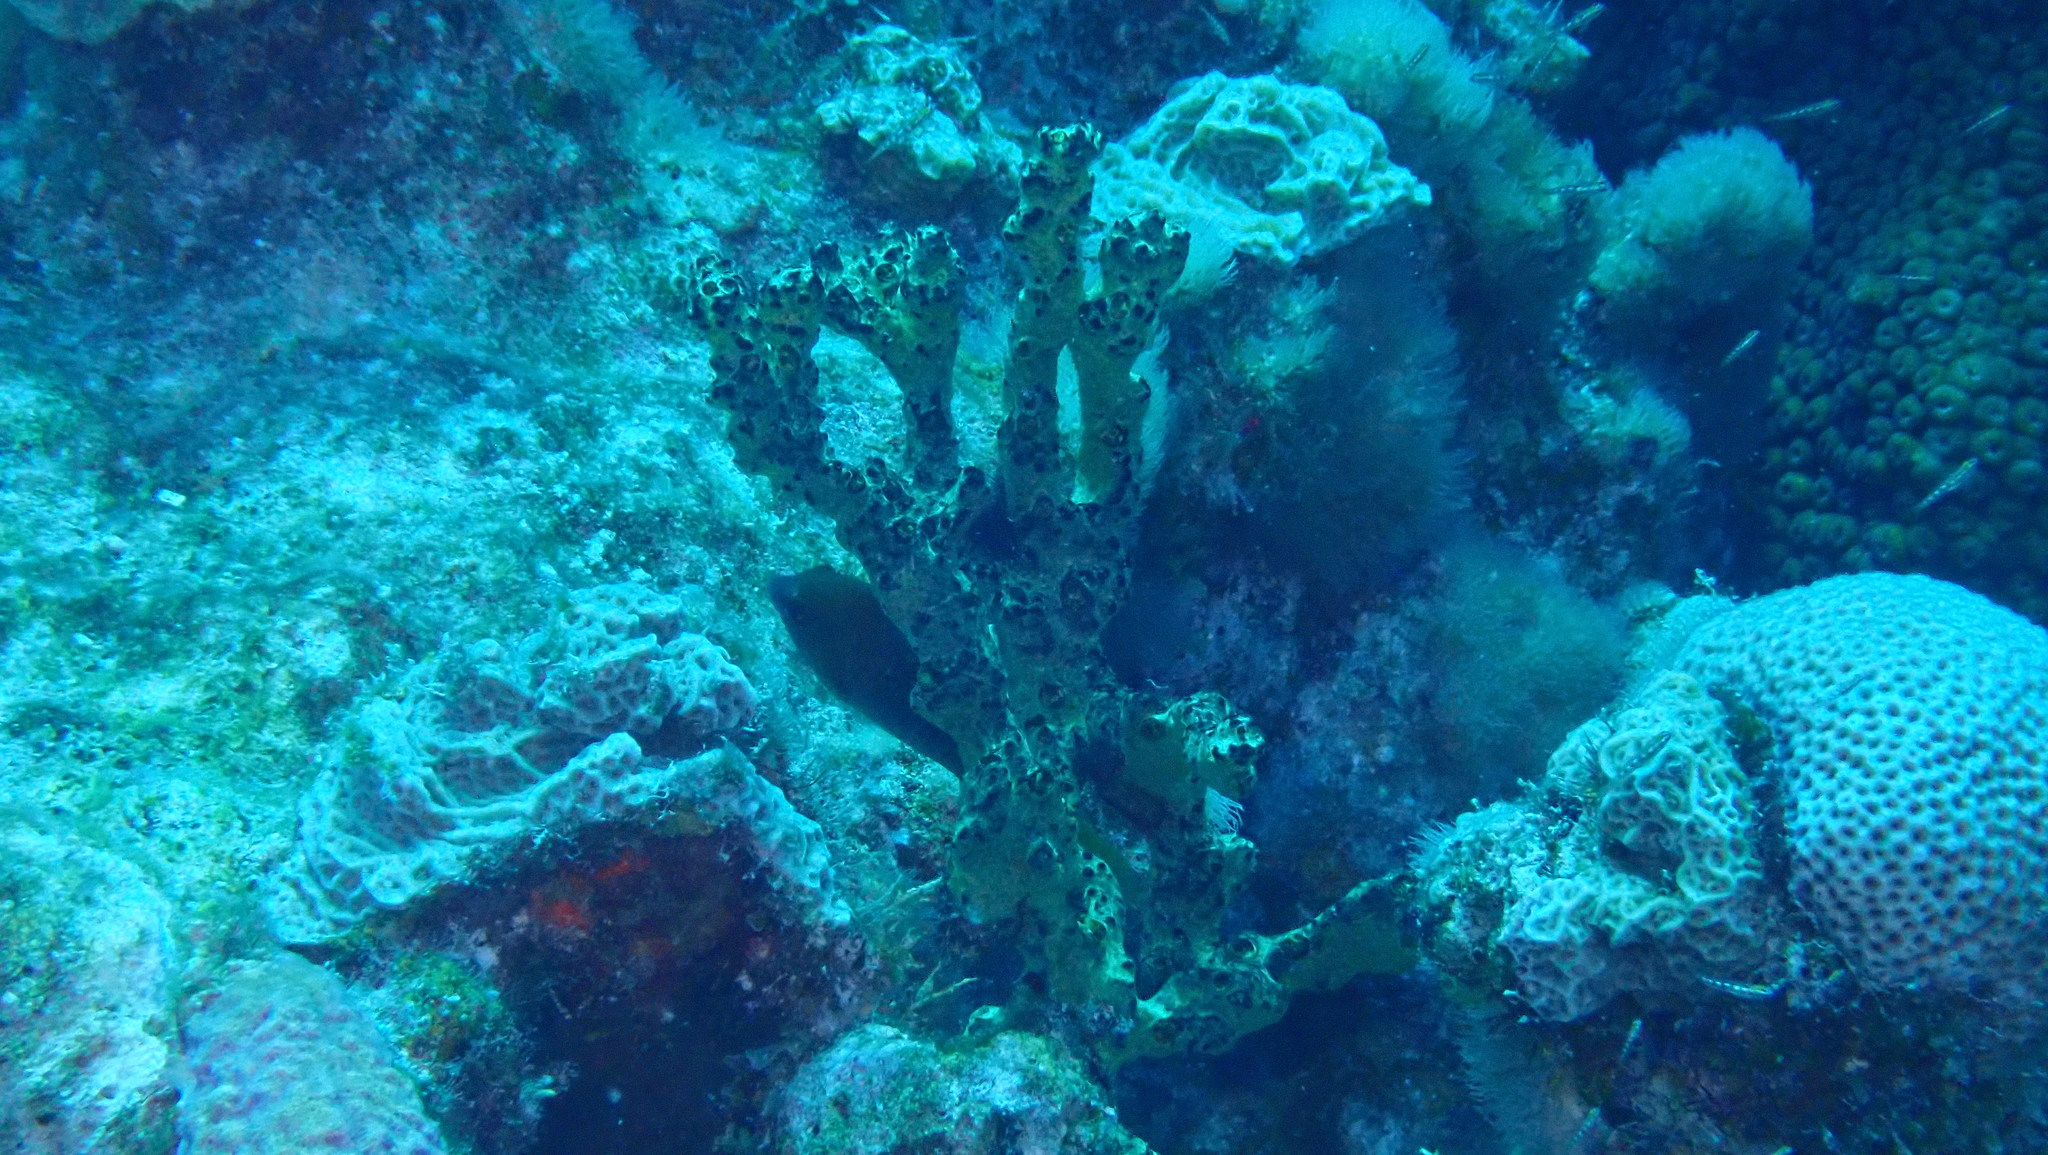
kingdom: Animalia
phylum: Porifera
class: Demospongiae
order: Poecilosclerida
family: Iotrochotidae
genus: Iotrochota
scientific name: Iotrochota birotulata
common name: Purple bleeding sponge
